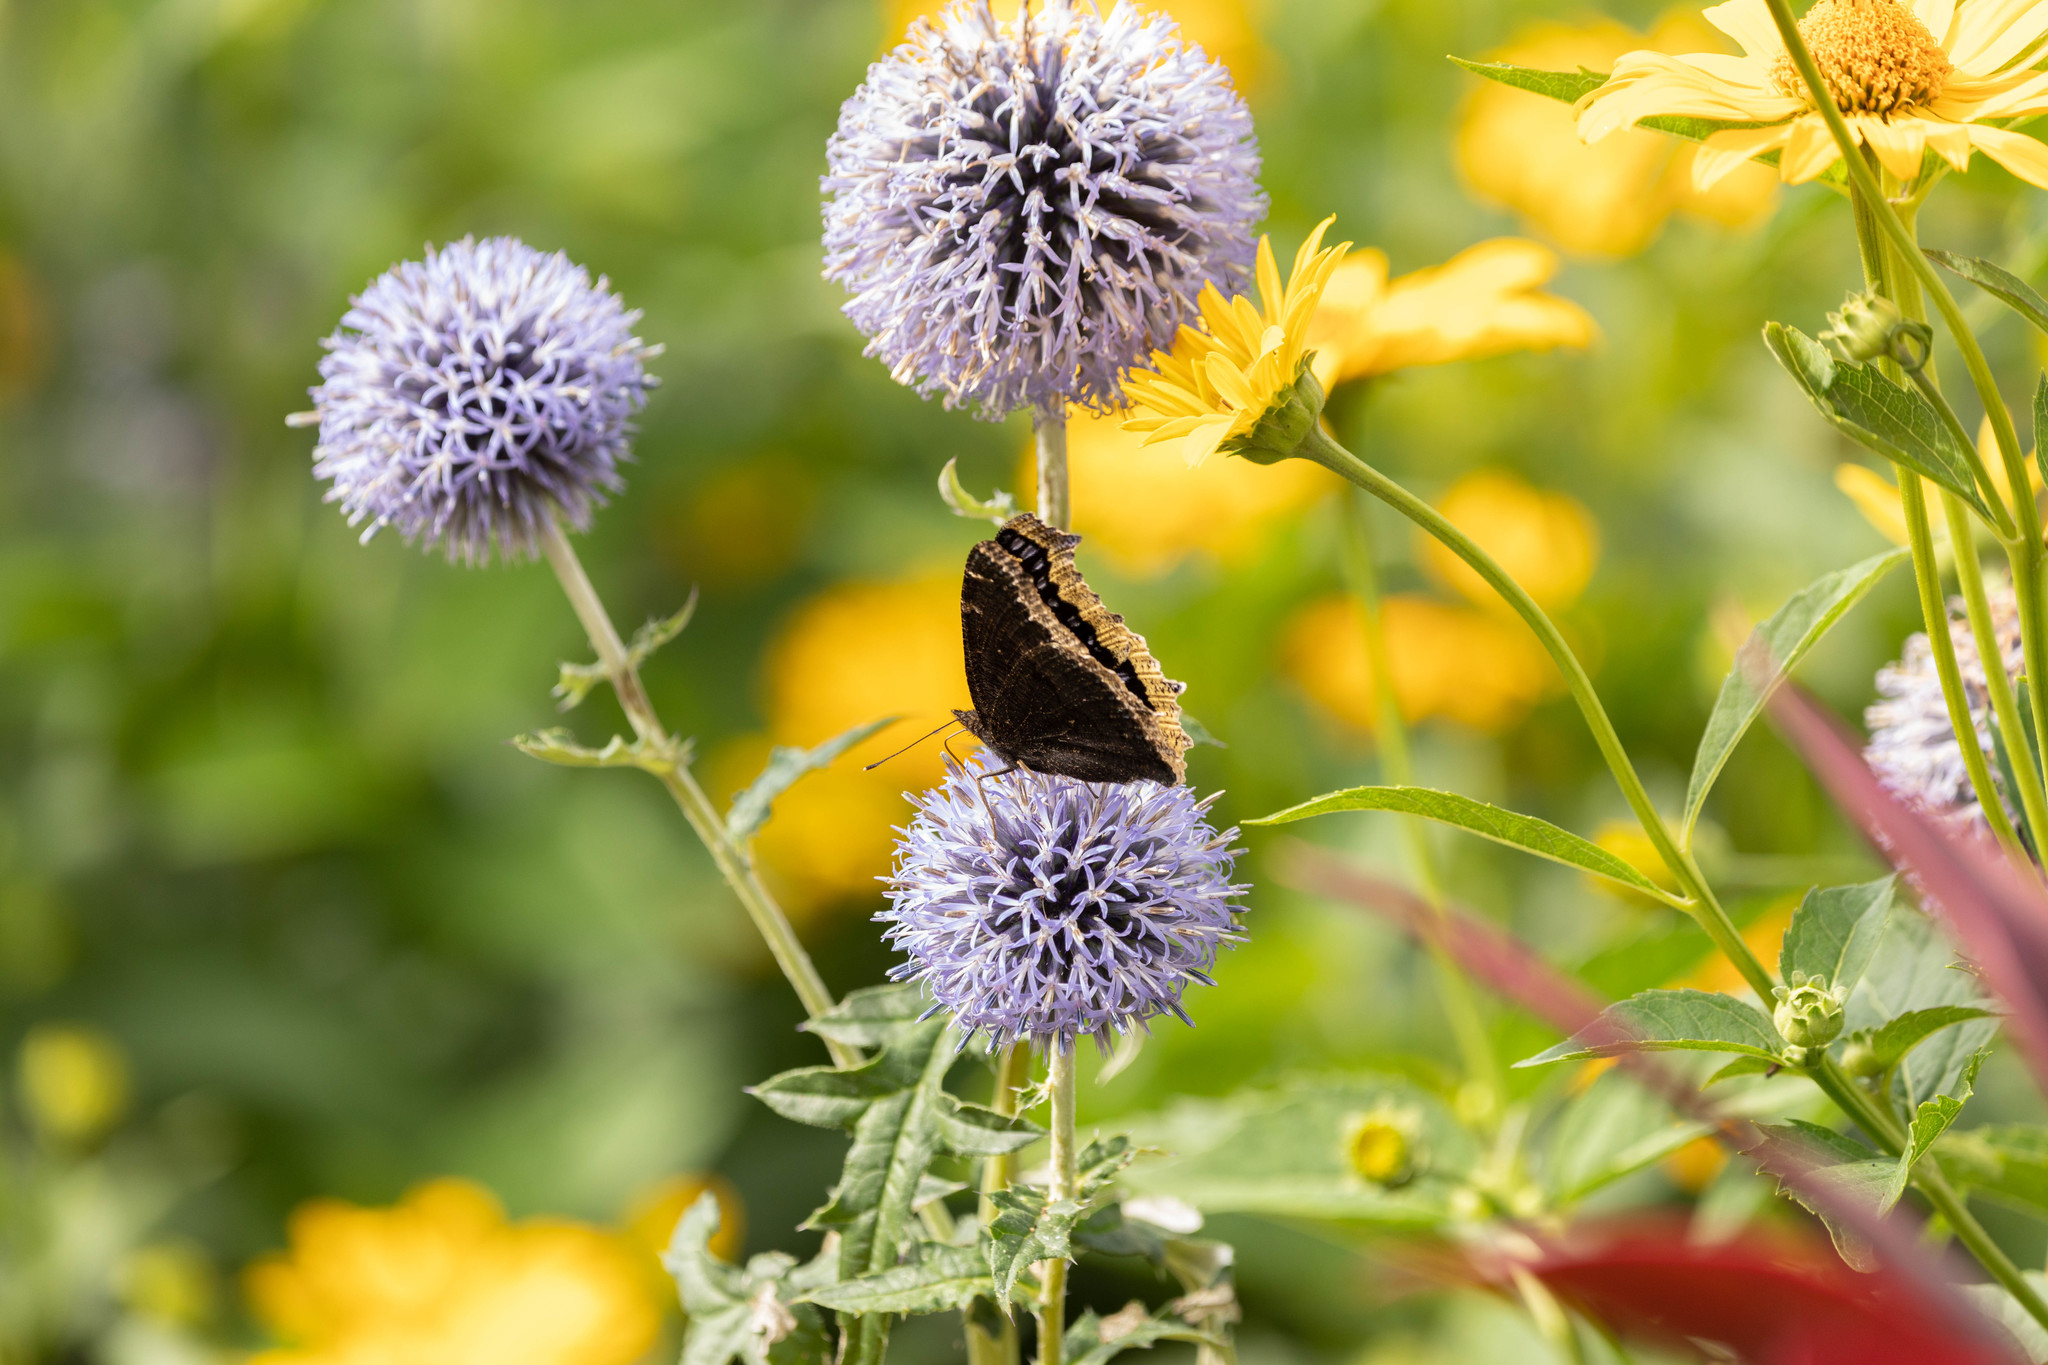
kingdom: Animalia
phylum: Arthropoda
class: Insecta
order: Lepidoptera
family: Nymphalidae
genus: Nymphalis
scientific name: Nymphalis antiopa
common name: Camberwell beauty
